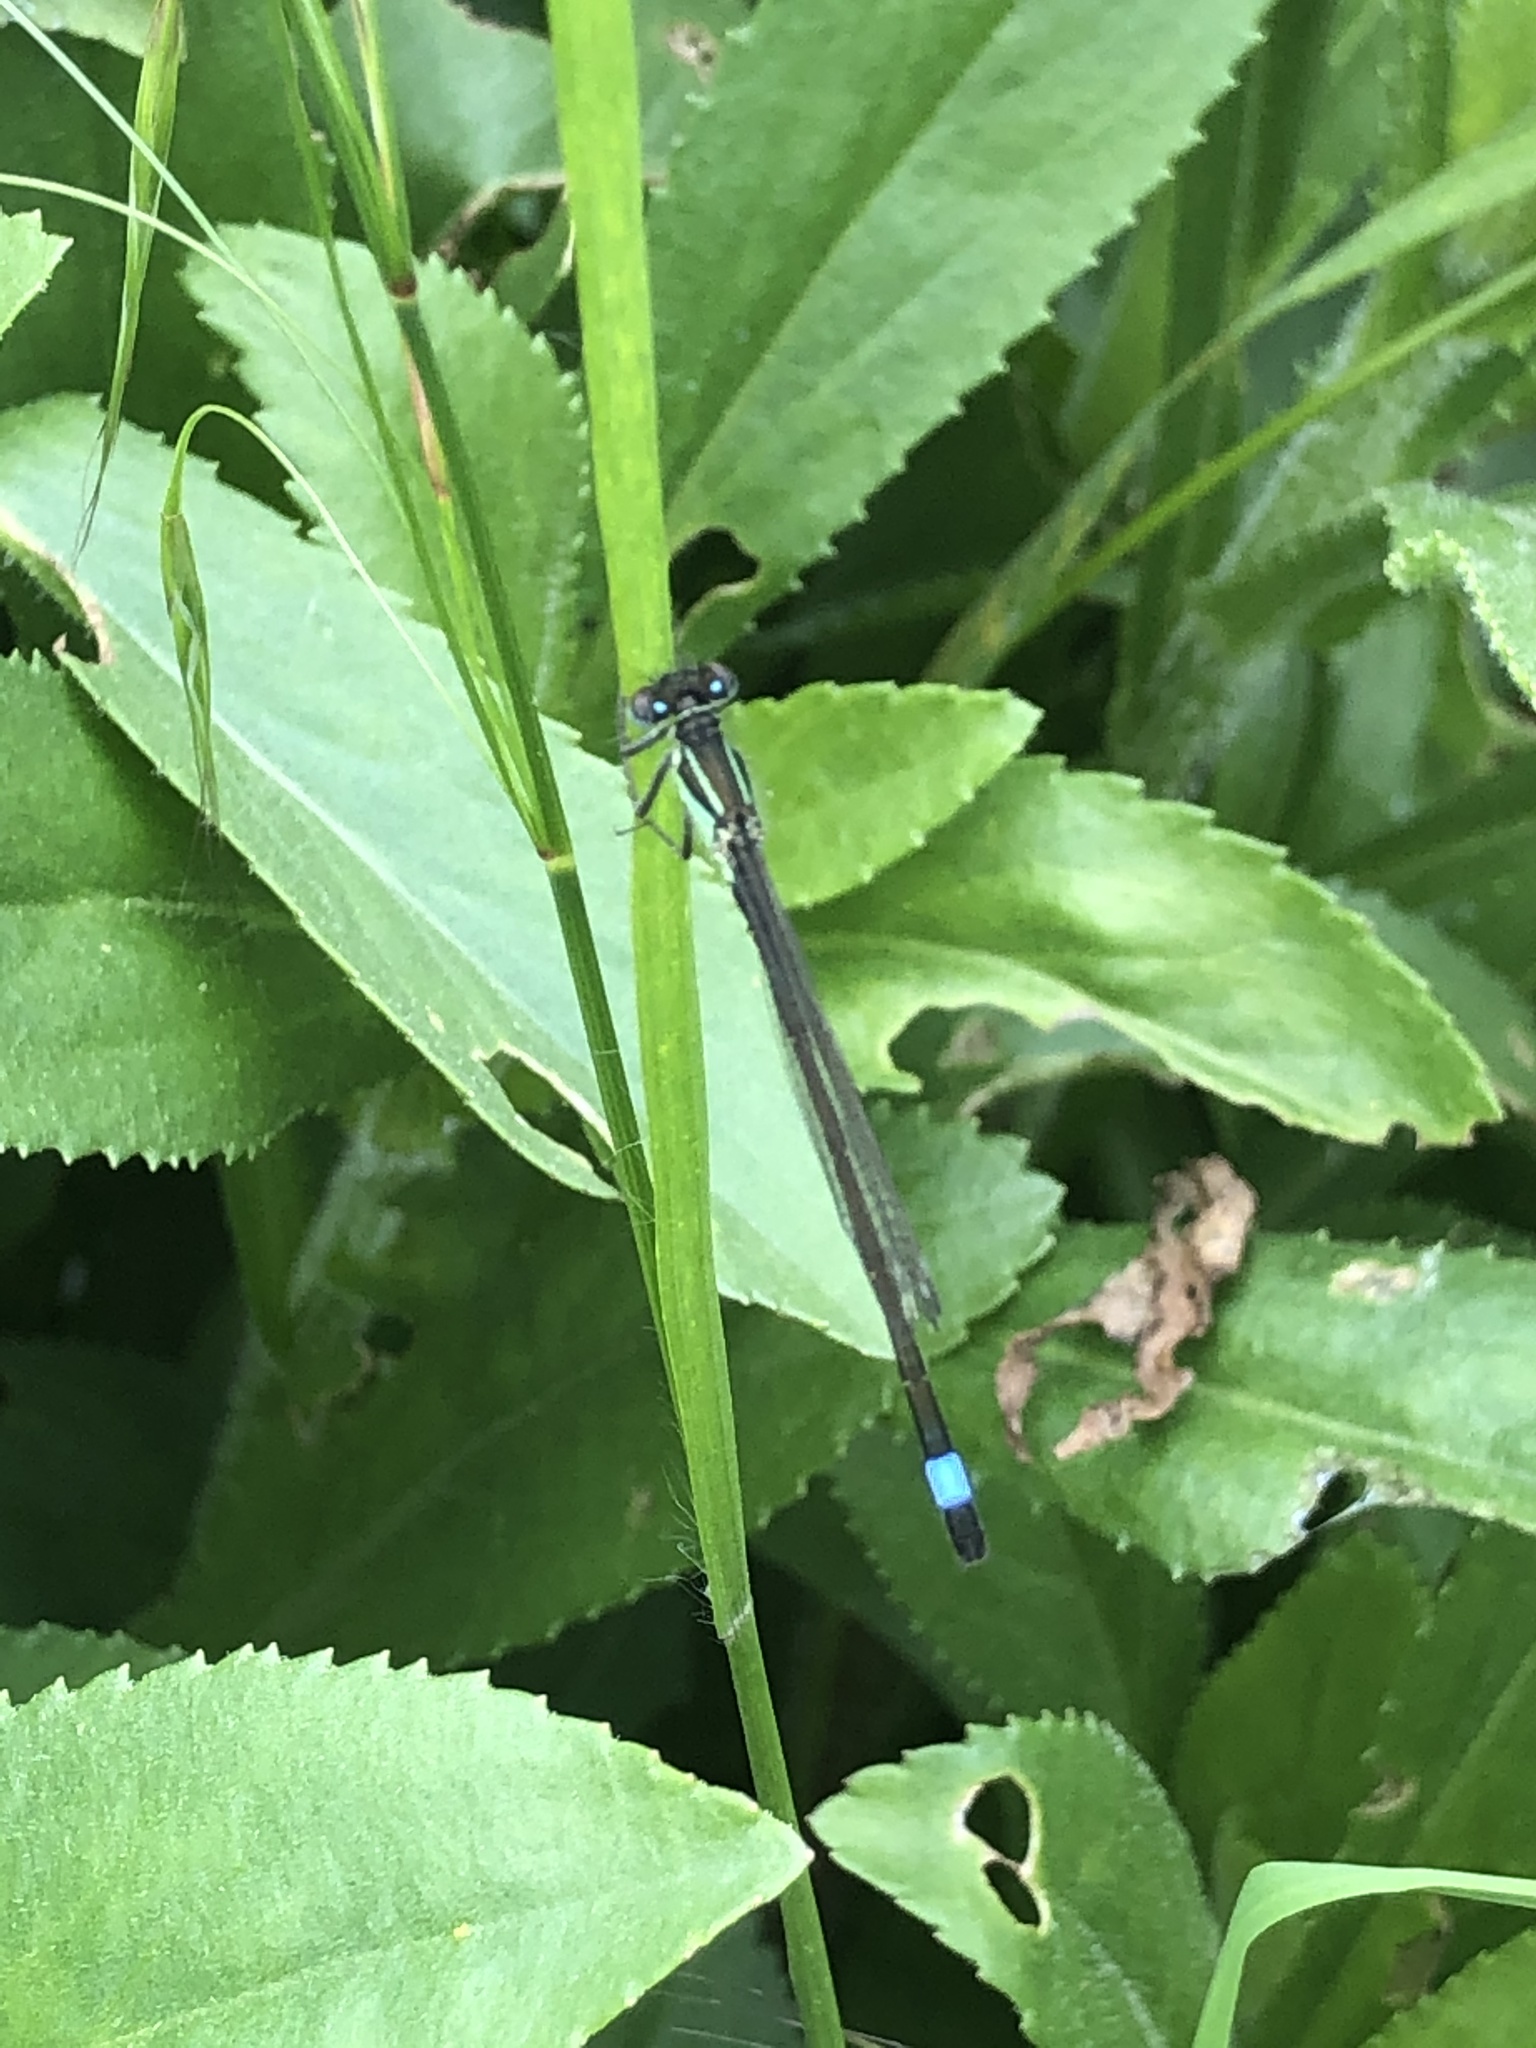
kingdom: Animalia
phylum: Arthropoda
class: Insecta
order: Odonata
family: Coenagrionidae
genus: Ischnura
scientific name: Ischnura elegans
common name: Blue-tailed damselfly
